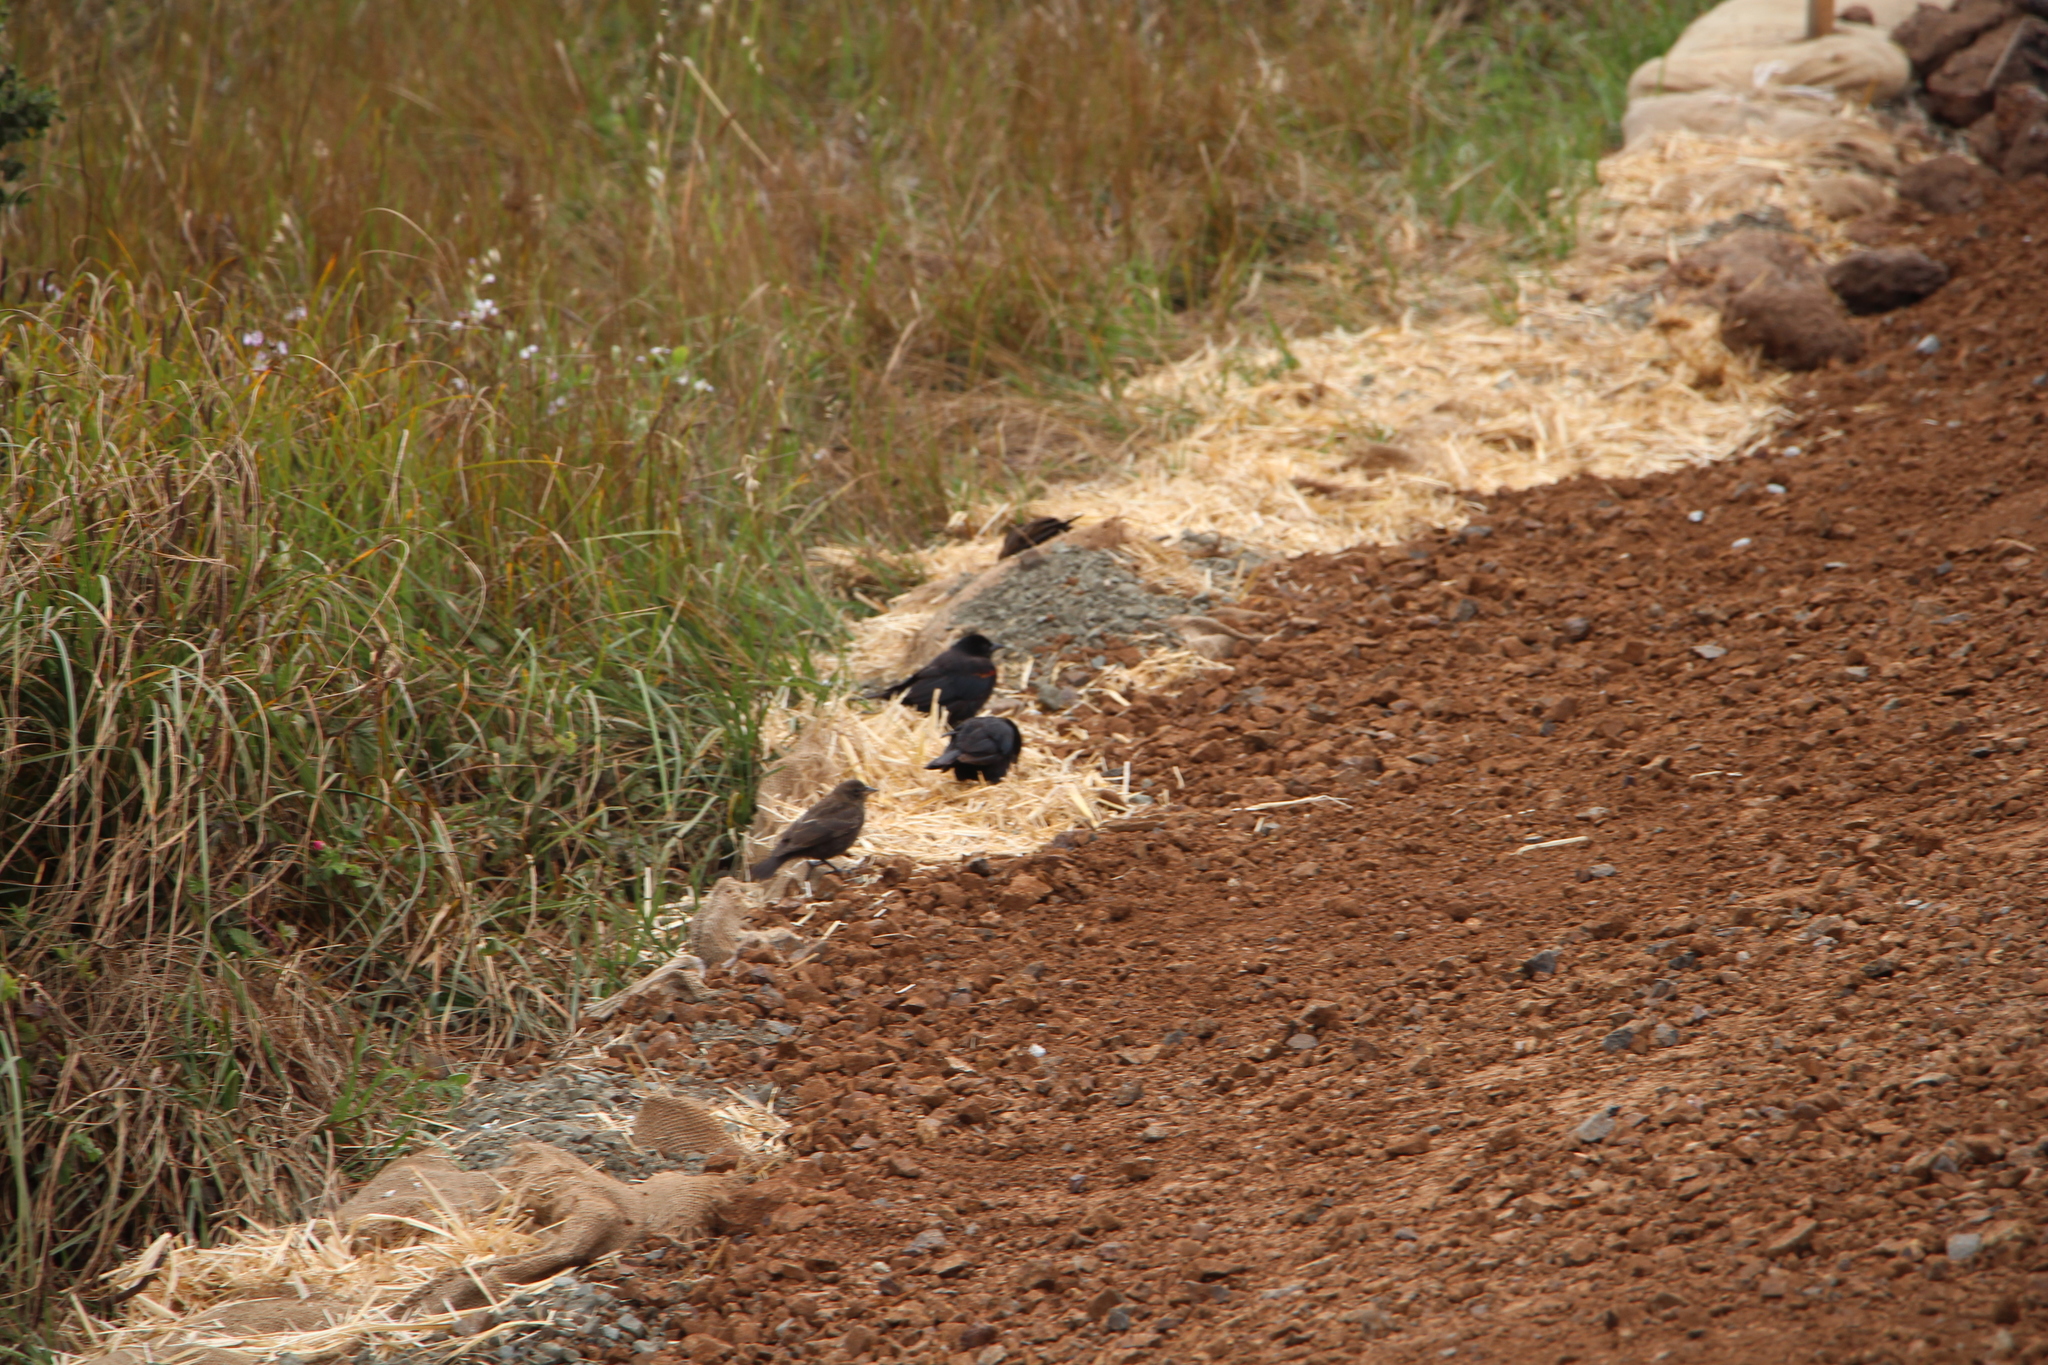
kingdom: Animalia
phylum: Chordata
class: Aves
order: Passeriformes
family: Icteridae
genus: Agelaius
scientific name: Agelaius phoeniceus
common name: Red-winged blackbird
